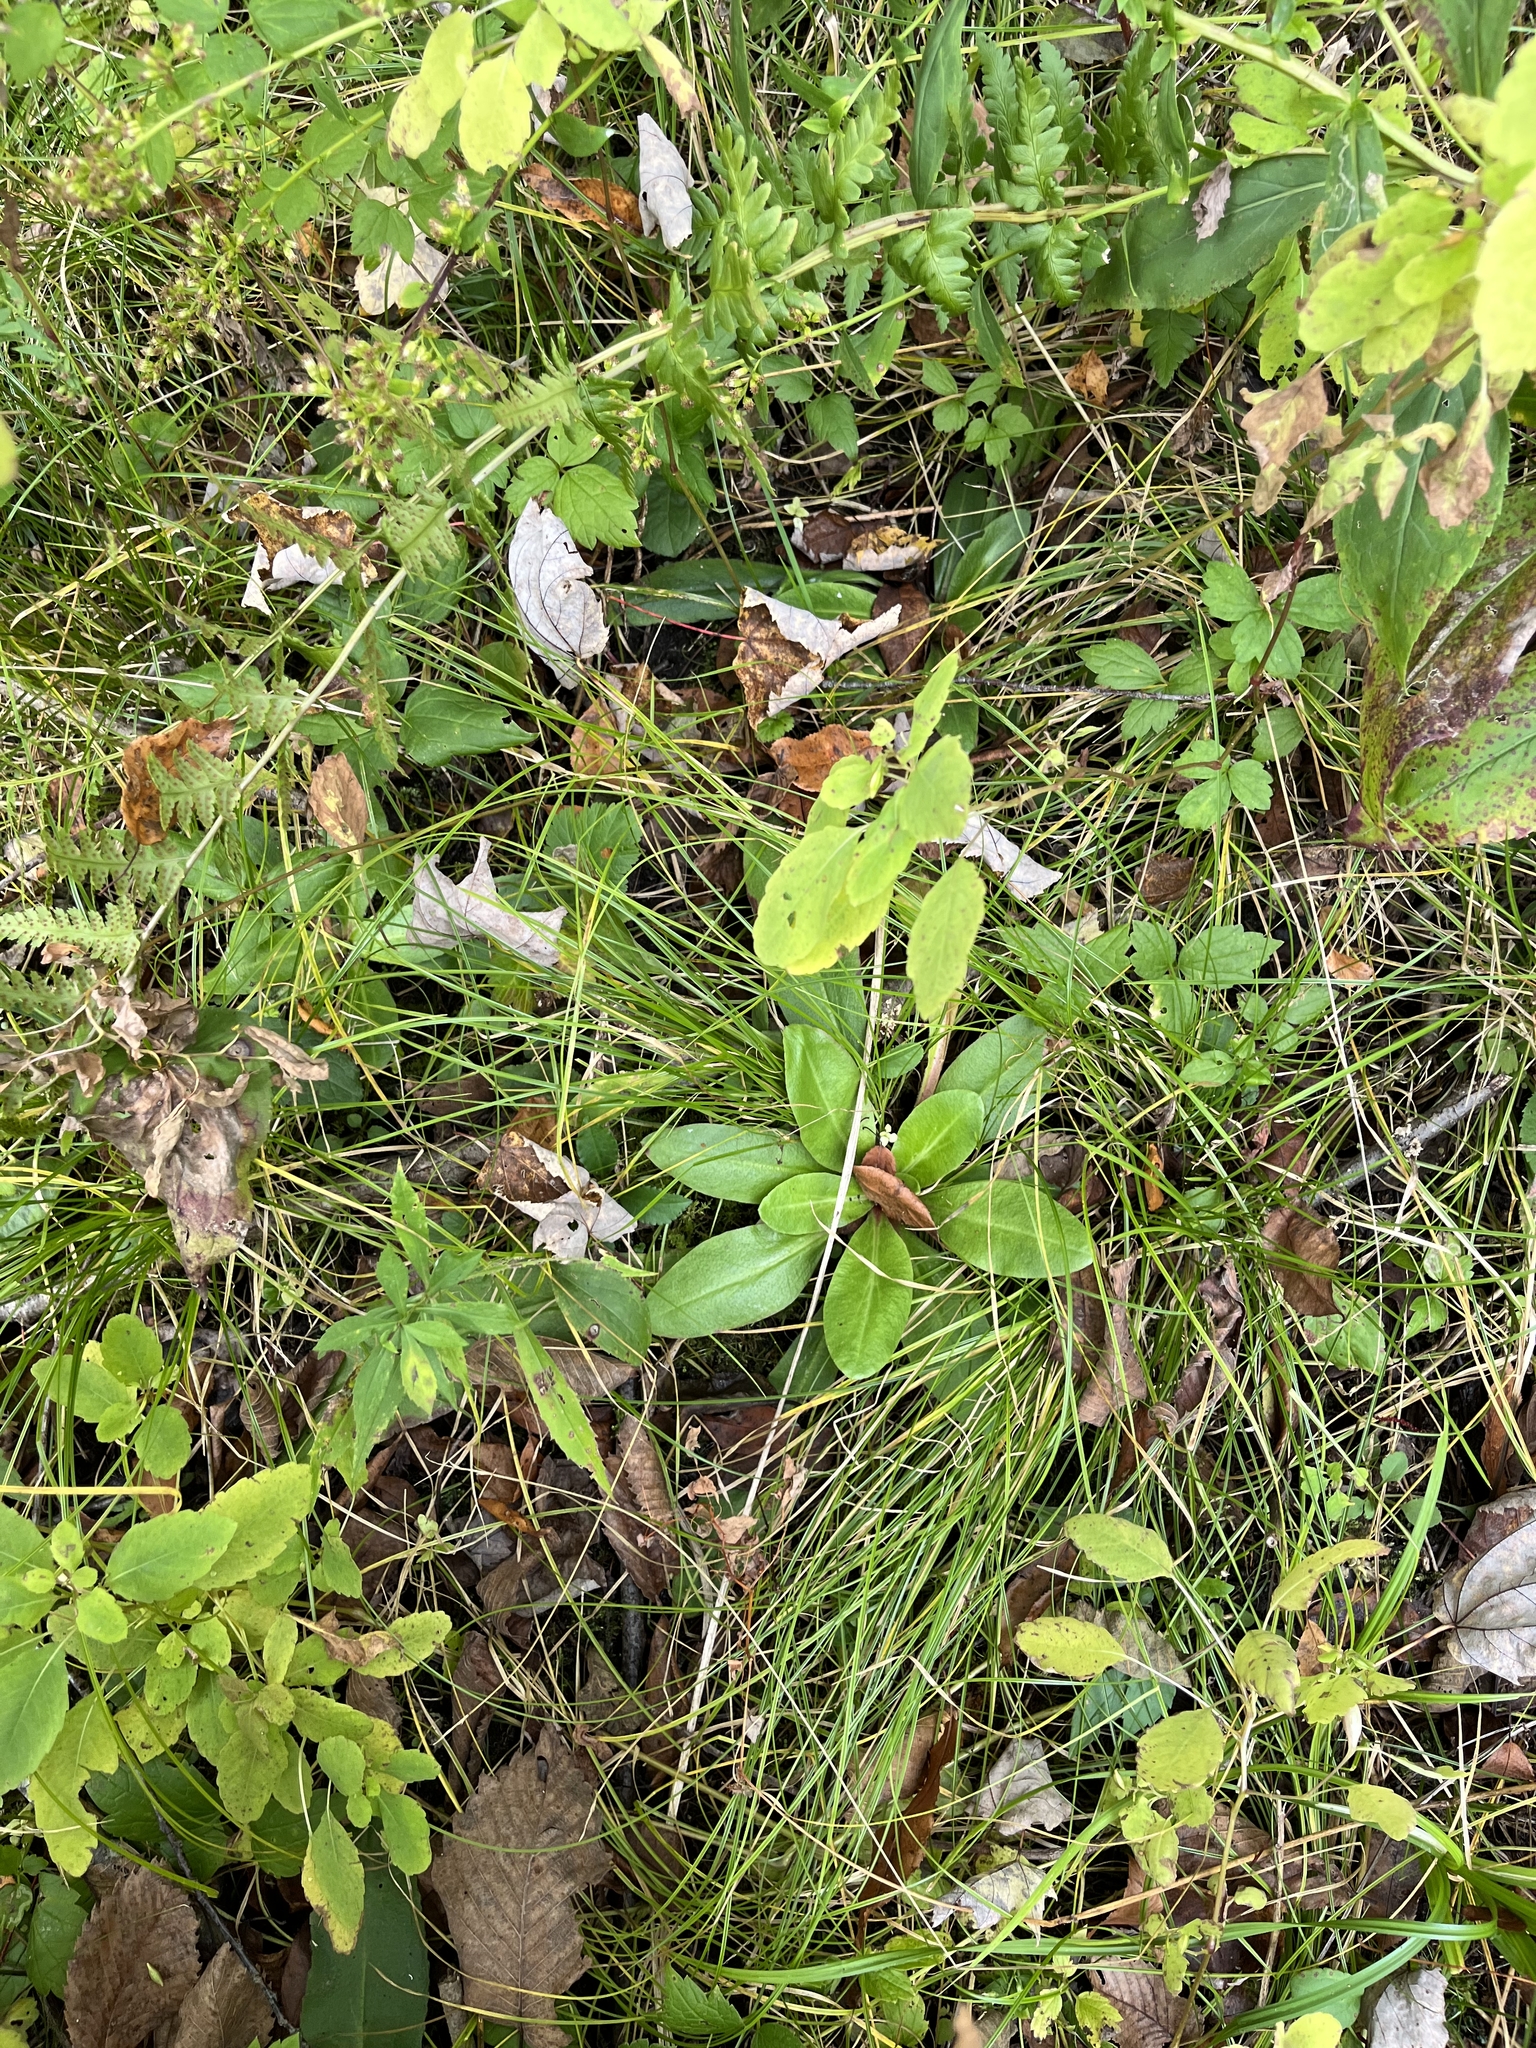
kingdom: Plantae
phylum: Tracheophyta
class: Magnoliopsida
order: Saxifragales
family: Saxifragaceae
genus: Micranthes
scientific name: Micranthes pensylvanica
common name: Marsh saxifrage
